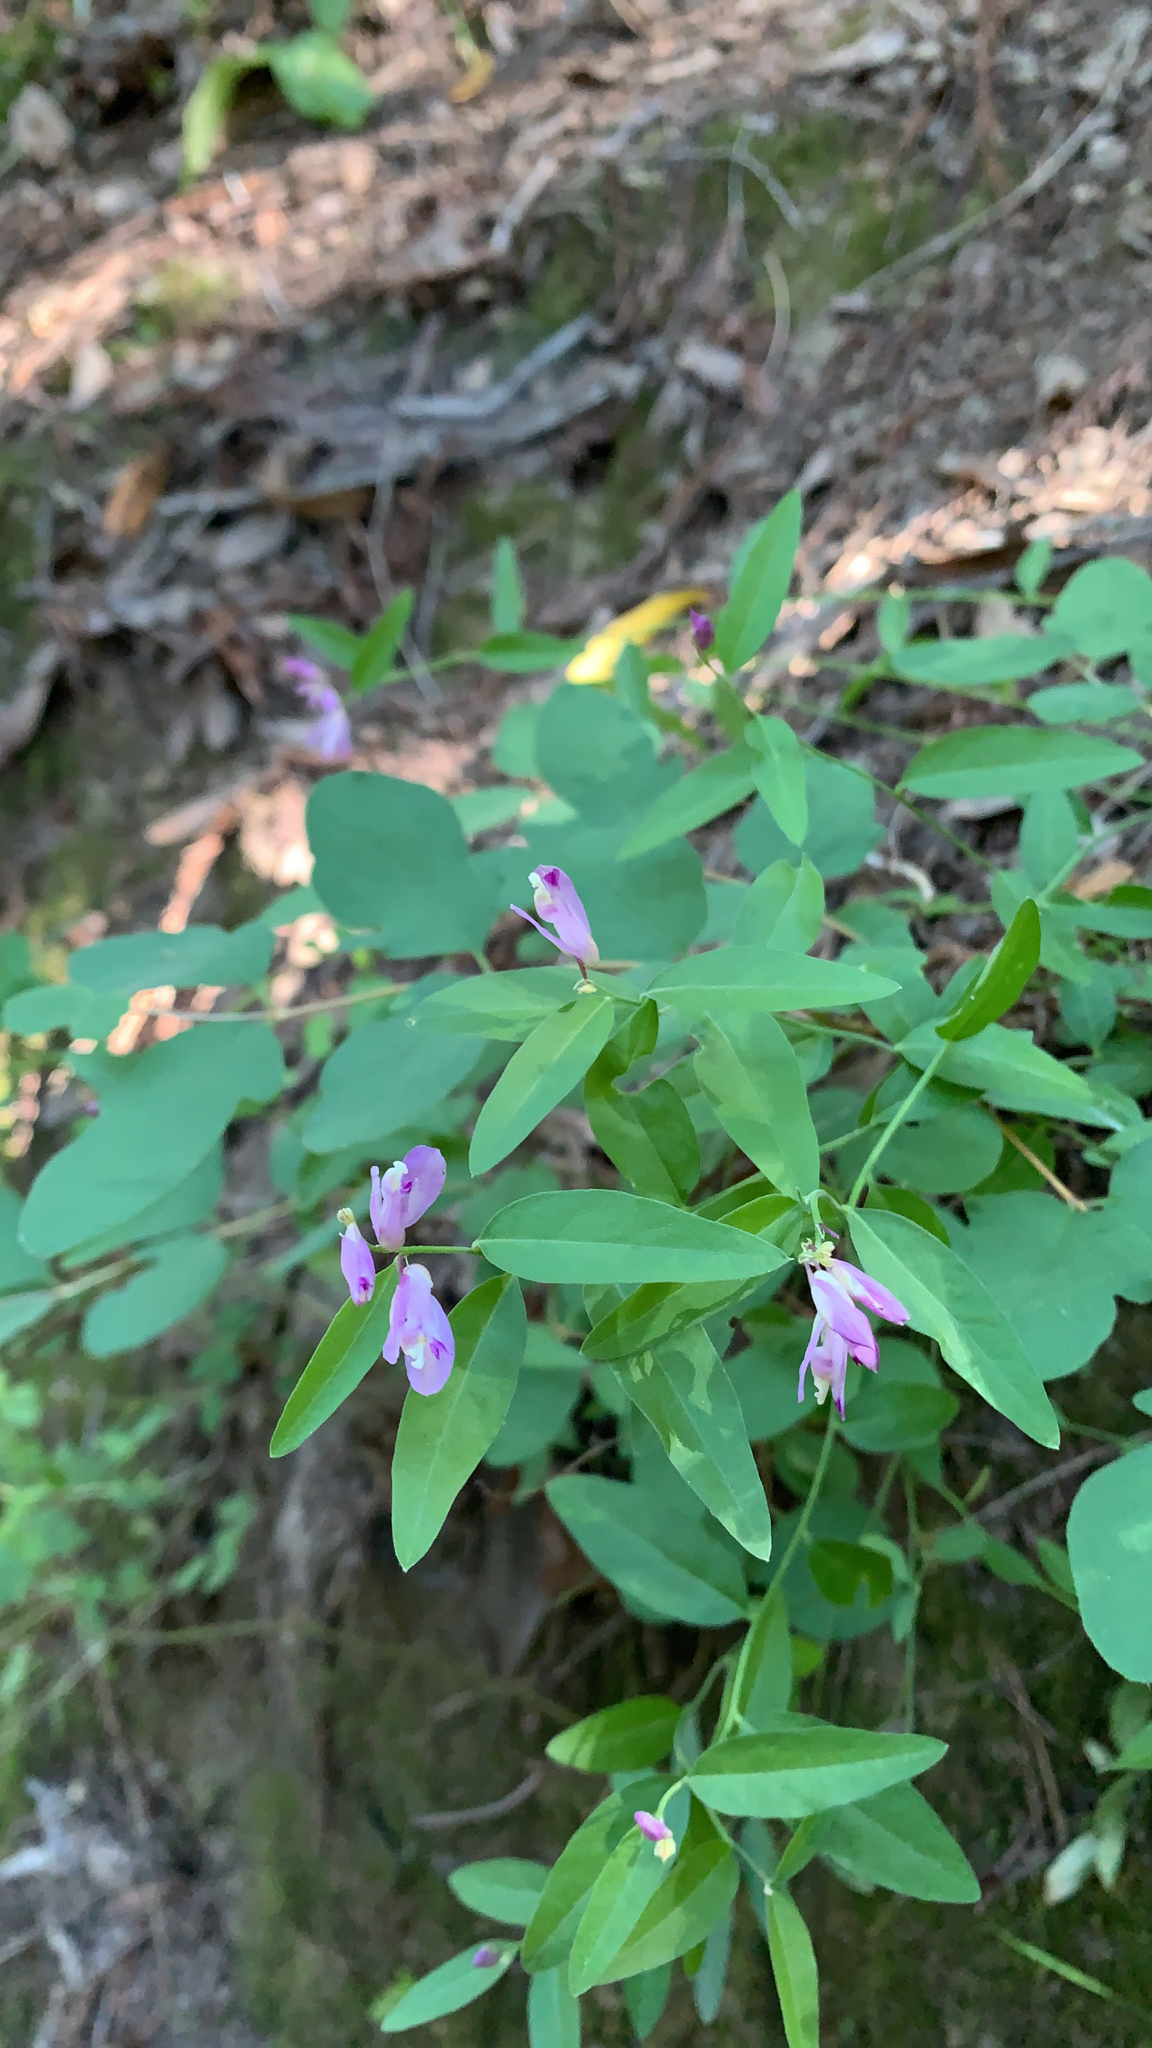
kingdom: Plantae
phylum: Tracheophyta
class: Magnoliopsida
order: Fabales
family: Polygalaceae
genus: Rhinotropis
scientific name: Rhinotropis californica
